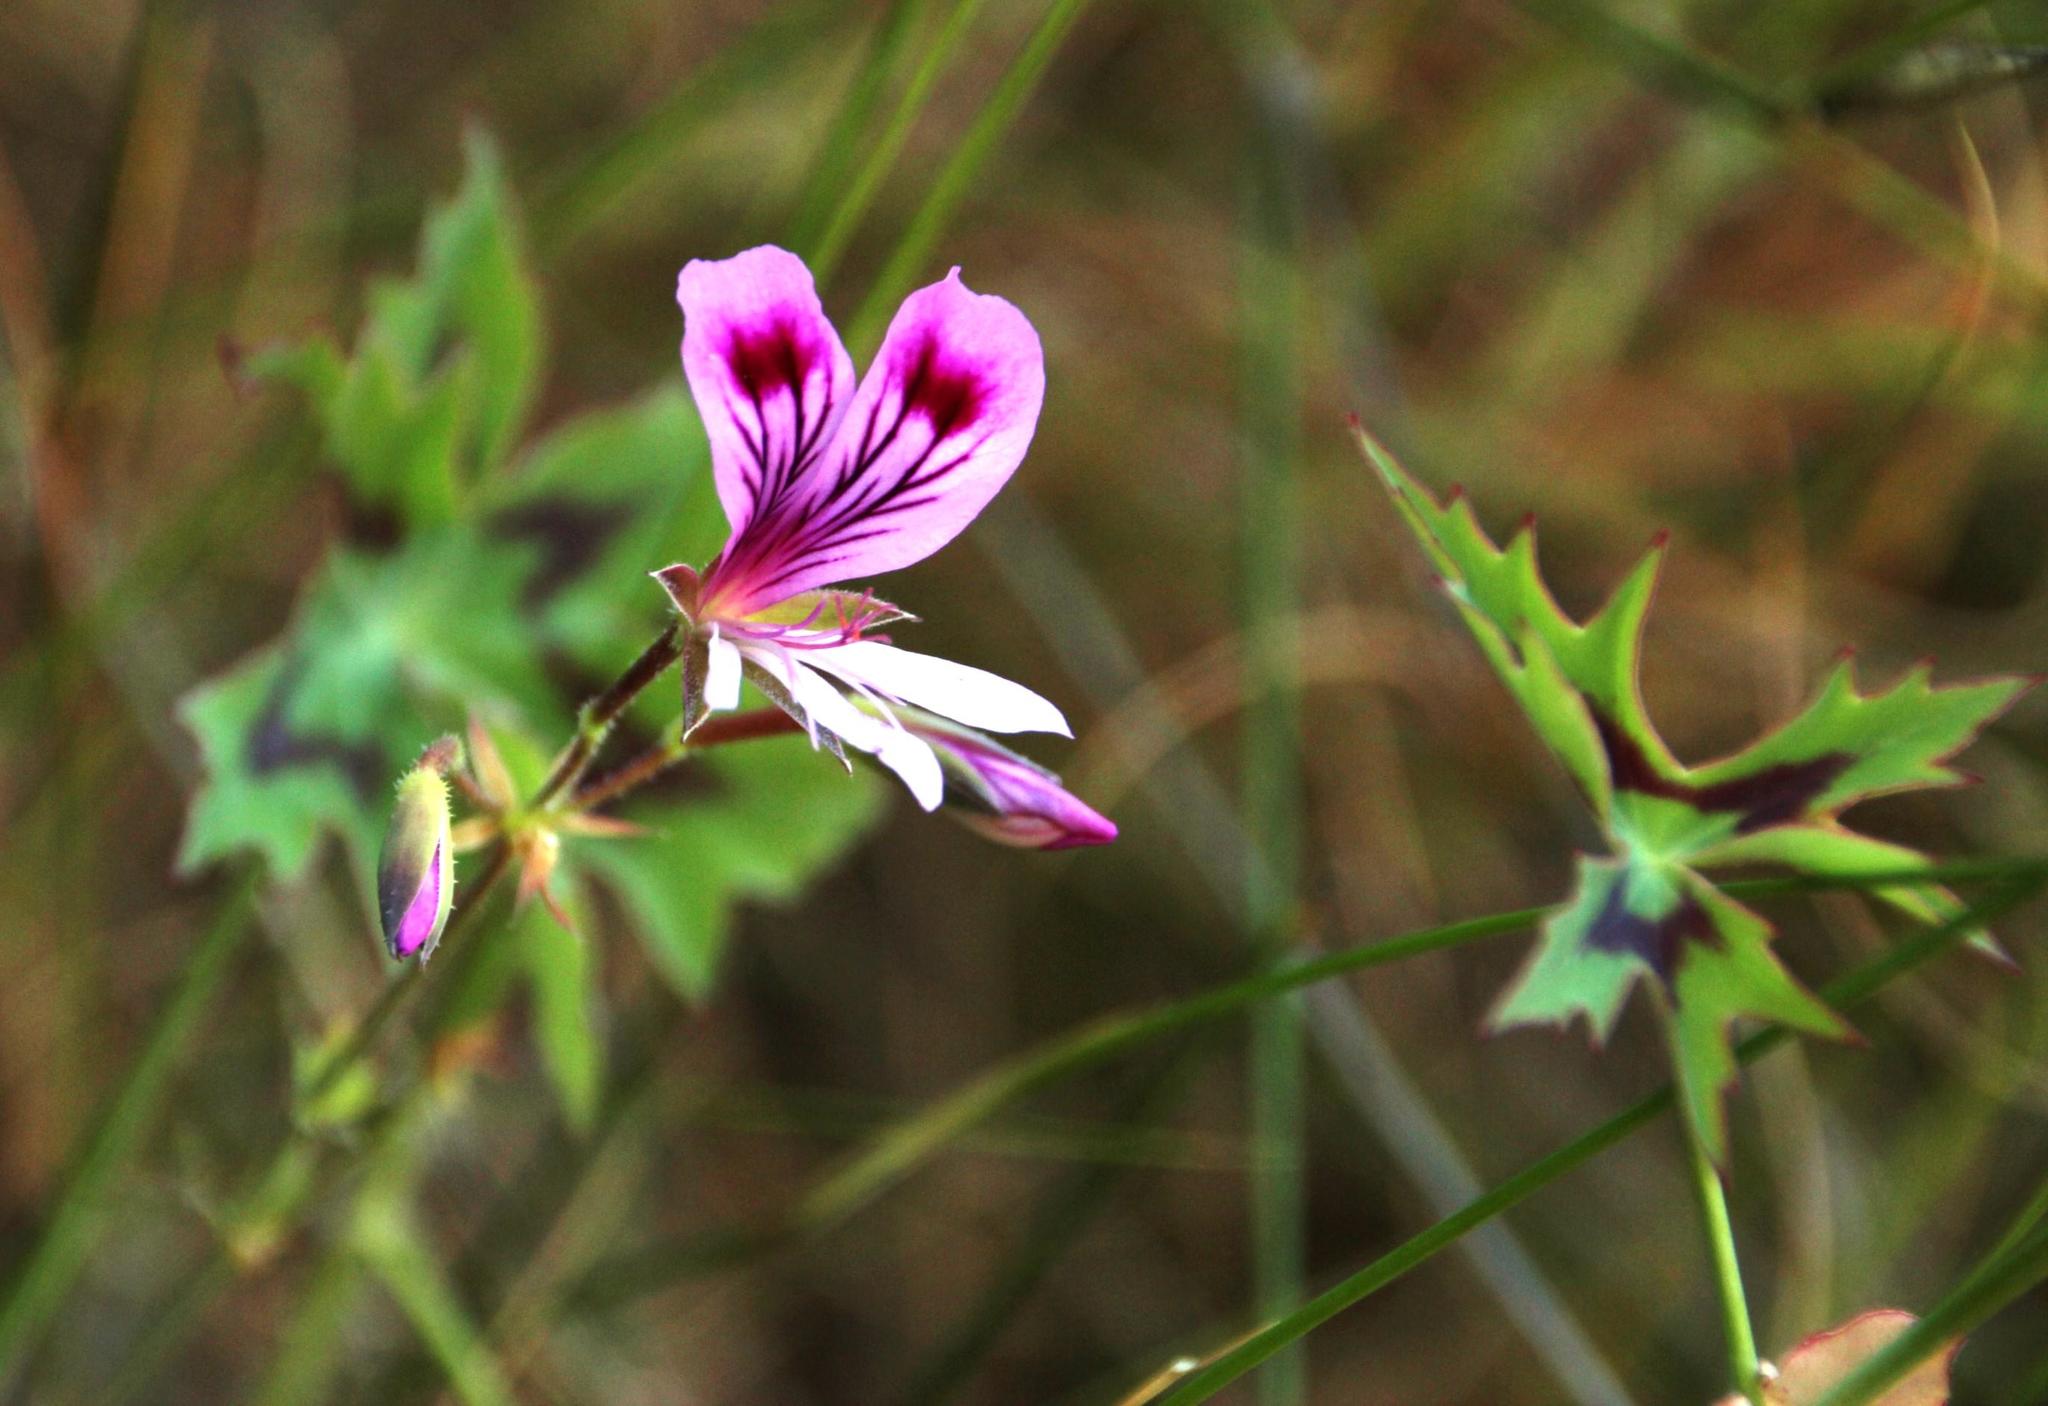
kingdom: Plantae
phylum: Tracheophyta
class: Magnoliopsida
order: Geraniales
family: Geraniaceae
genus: Pelargonium
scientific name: Pelargonium grandiflorum
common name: Large-flower pelargonium
